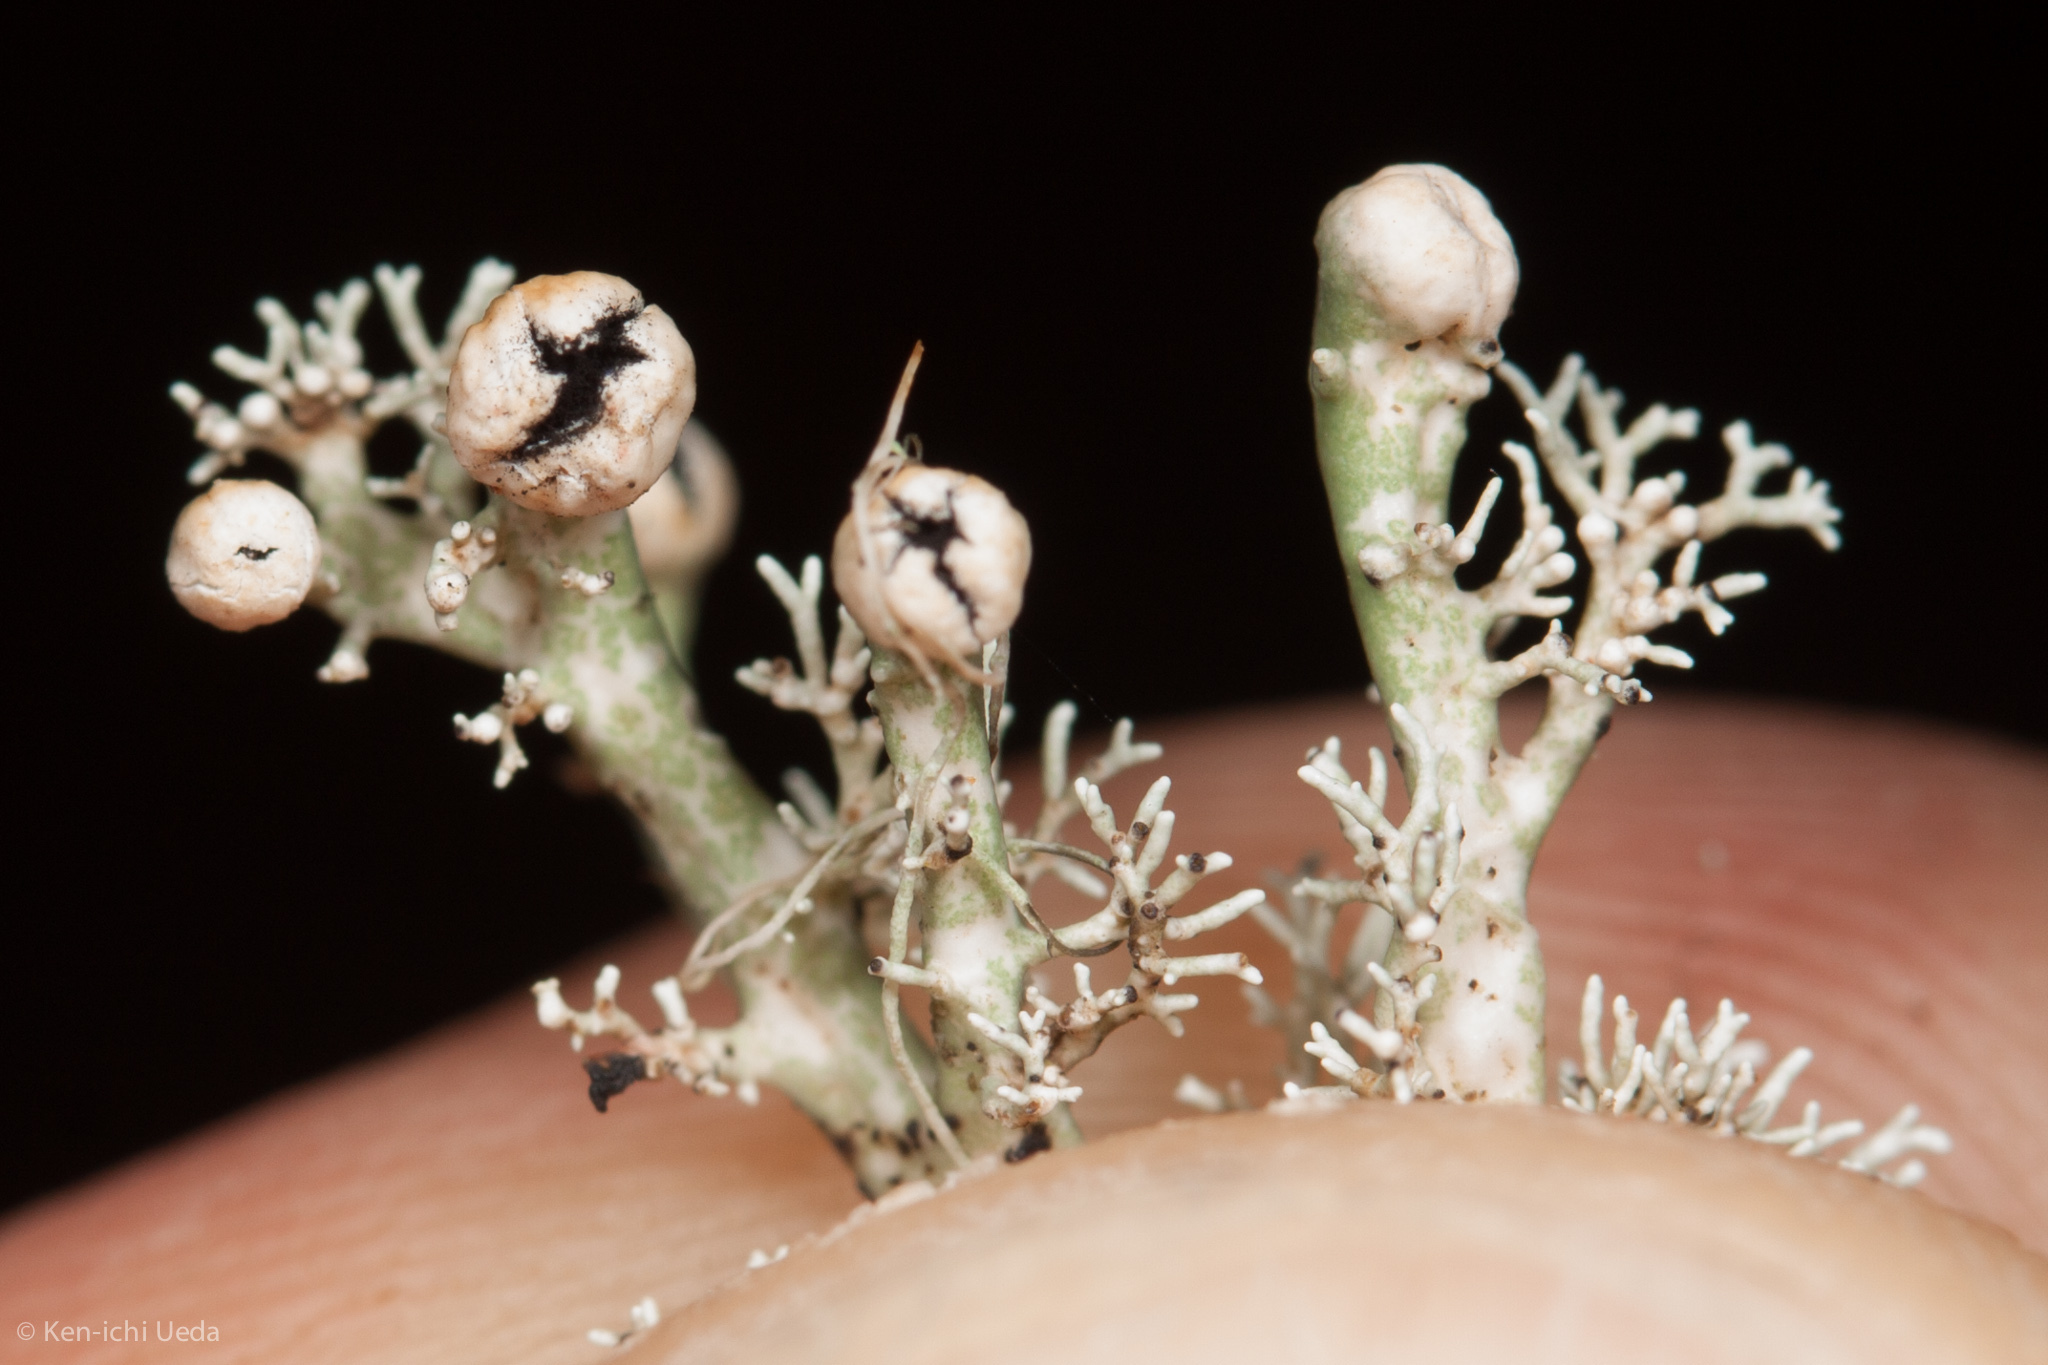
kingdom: Fungi
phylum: Ascomycota
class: Lecanoromycetes
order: Lecanorales
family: Sphaerophoraceae
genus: Sphaerophorus
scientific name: Sphaerophorus globosus
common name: Globe ball lichen
